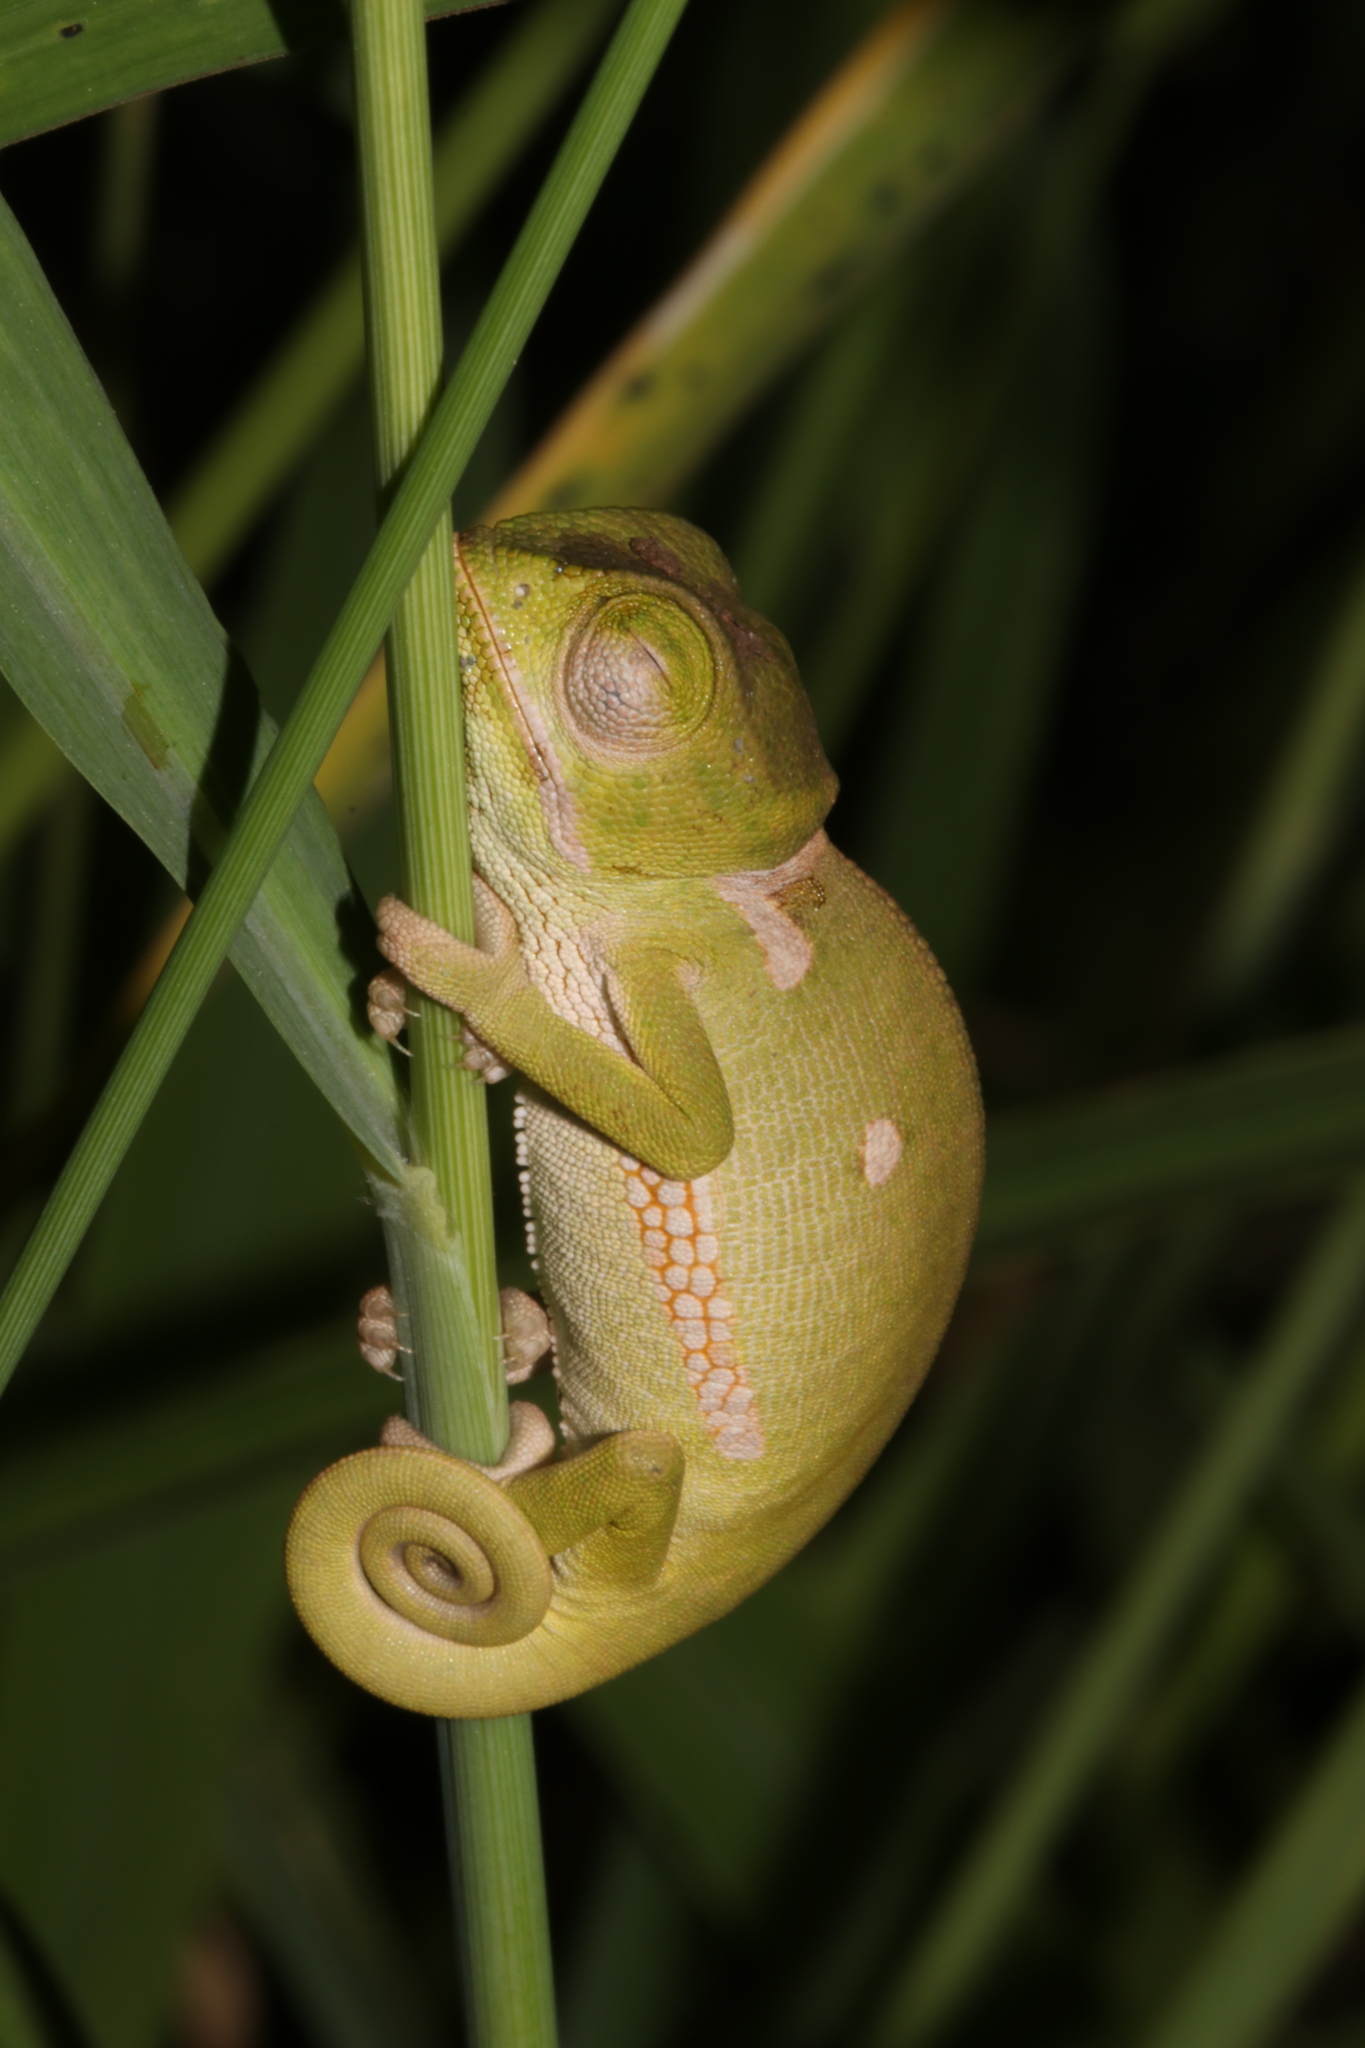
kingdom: Animalia
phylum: Chordata
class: Squamata
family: Chamaeleonidae
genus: Chamaeleo
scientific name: Chamaeleo dilepis
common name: Flapneck chameleon
